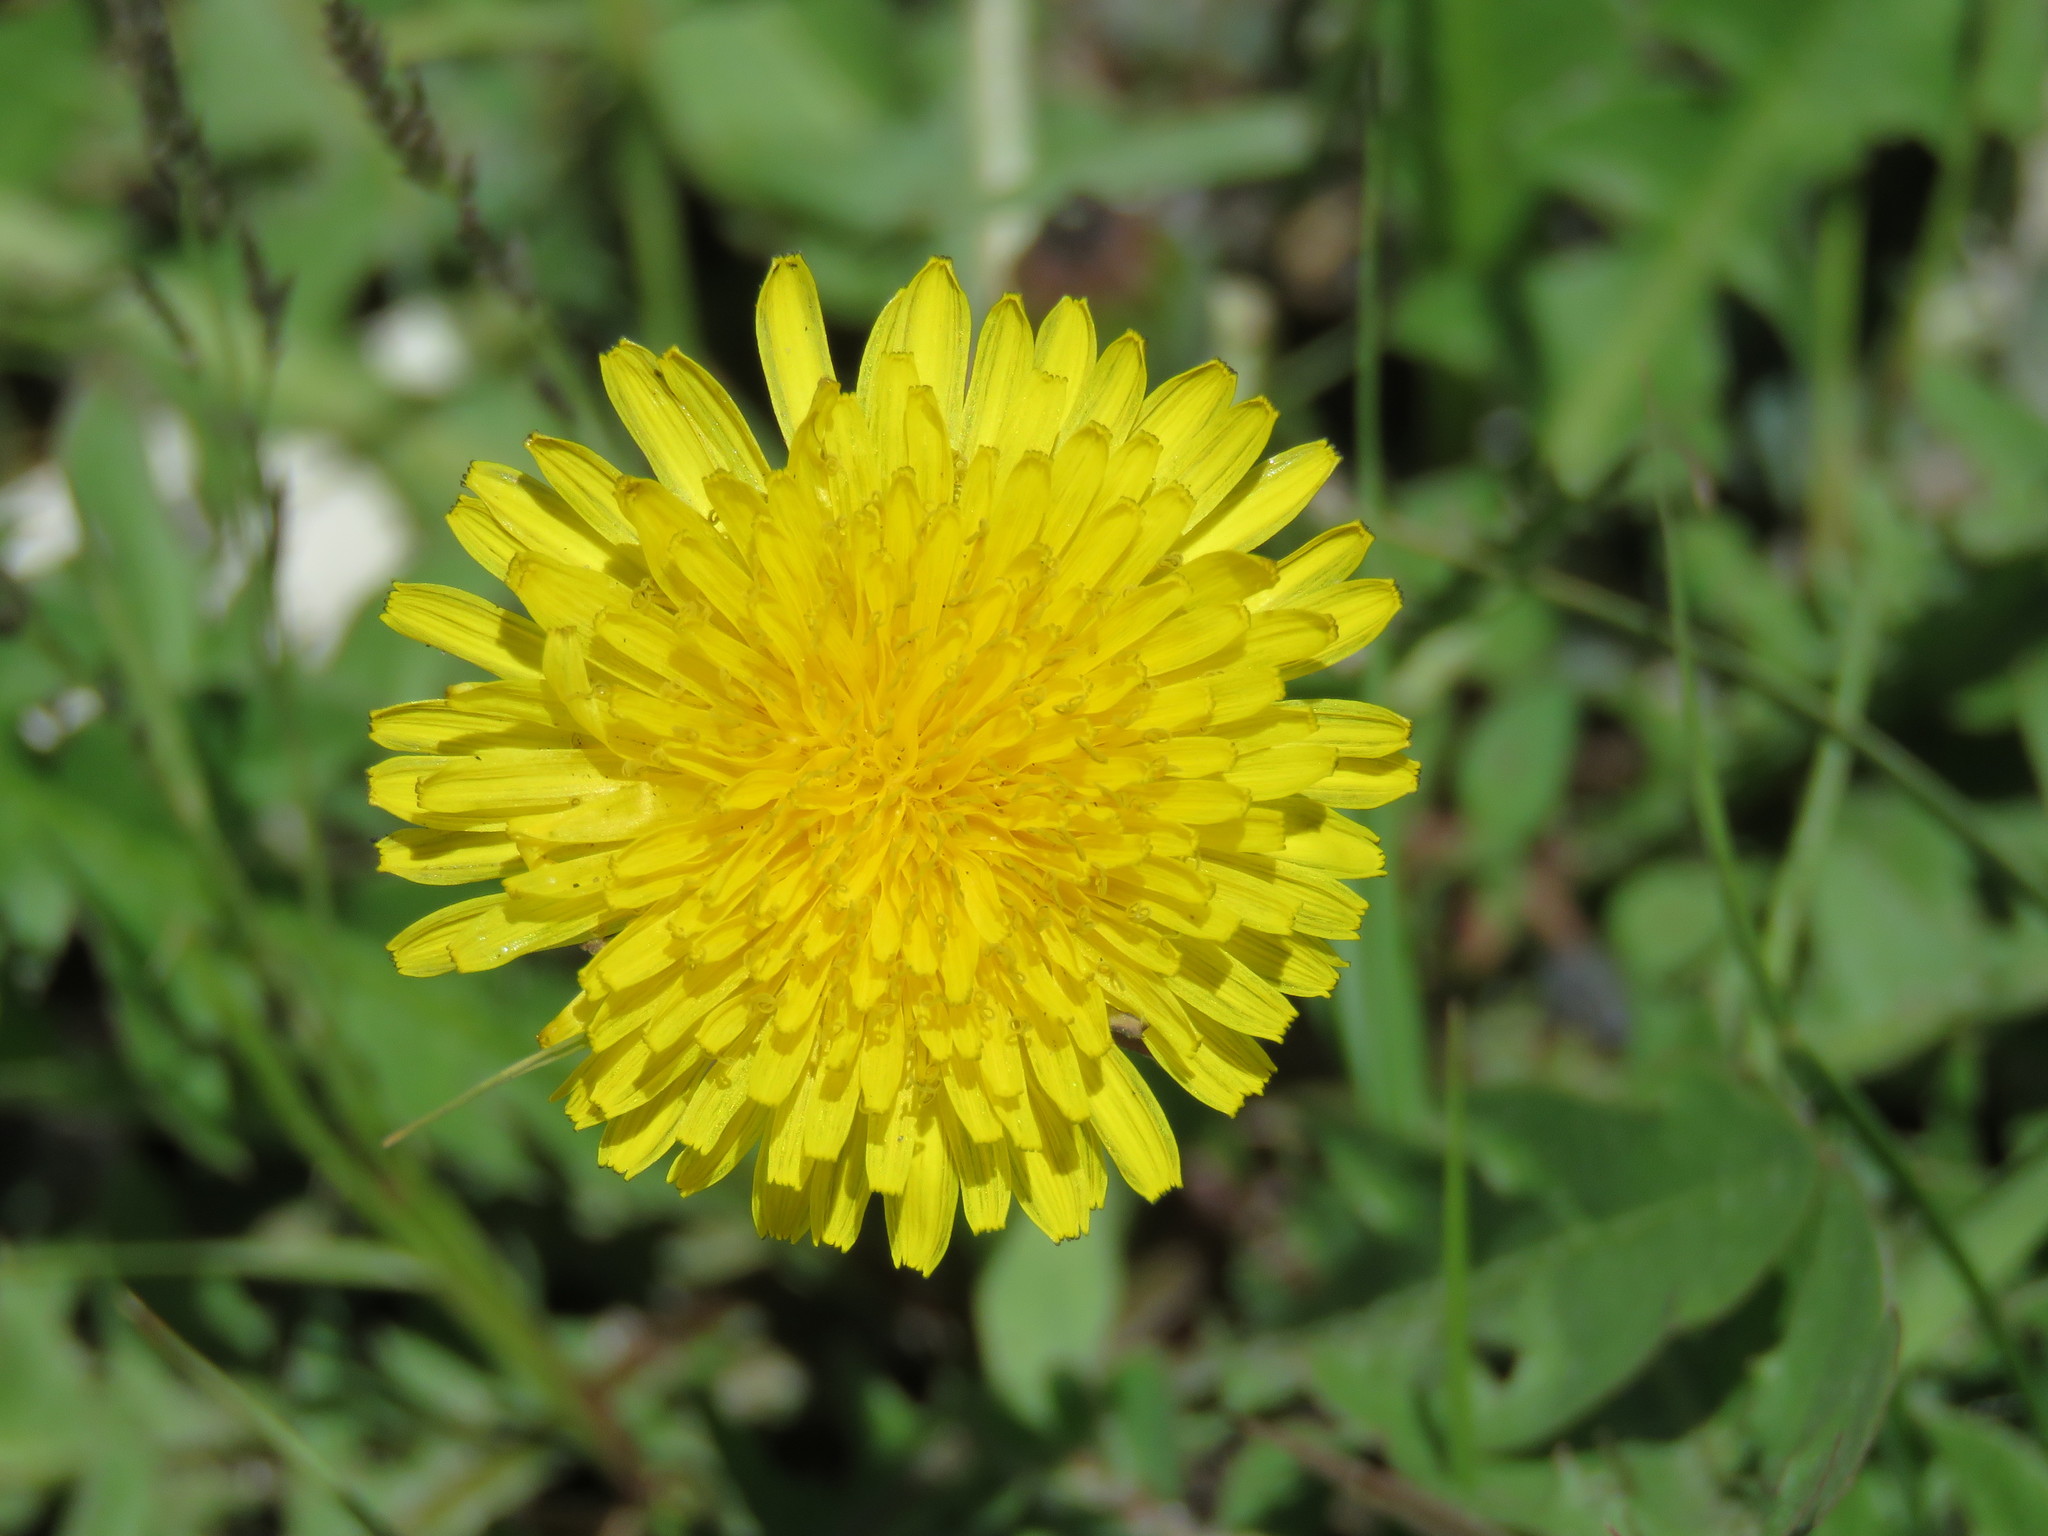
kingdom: Plantae
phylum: Tracheophyta
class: Magnoliopsida
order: Asterales
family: Asteraceae
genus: Taraxacum
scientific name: Taraxacum officinale
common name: Common dandelion
